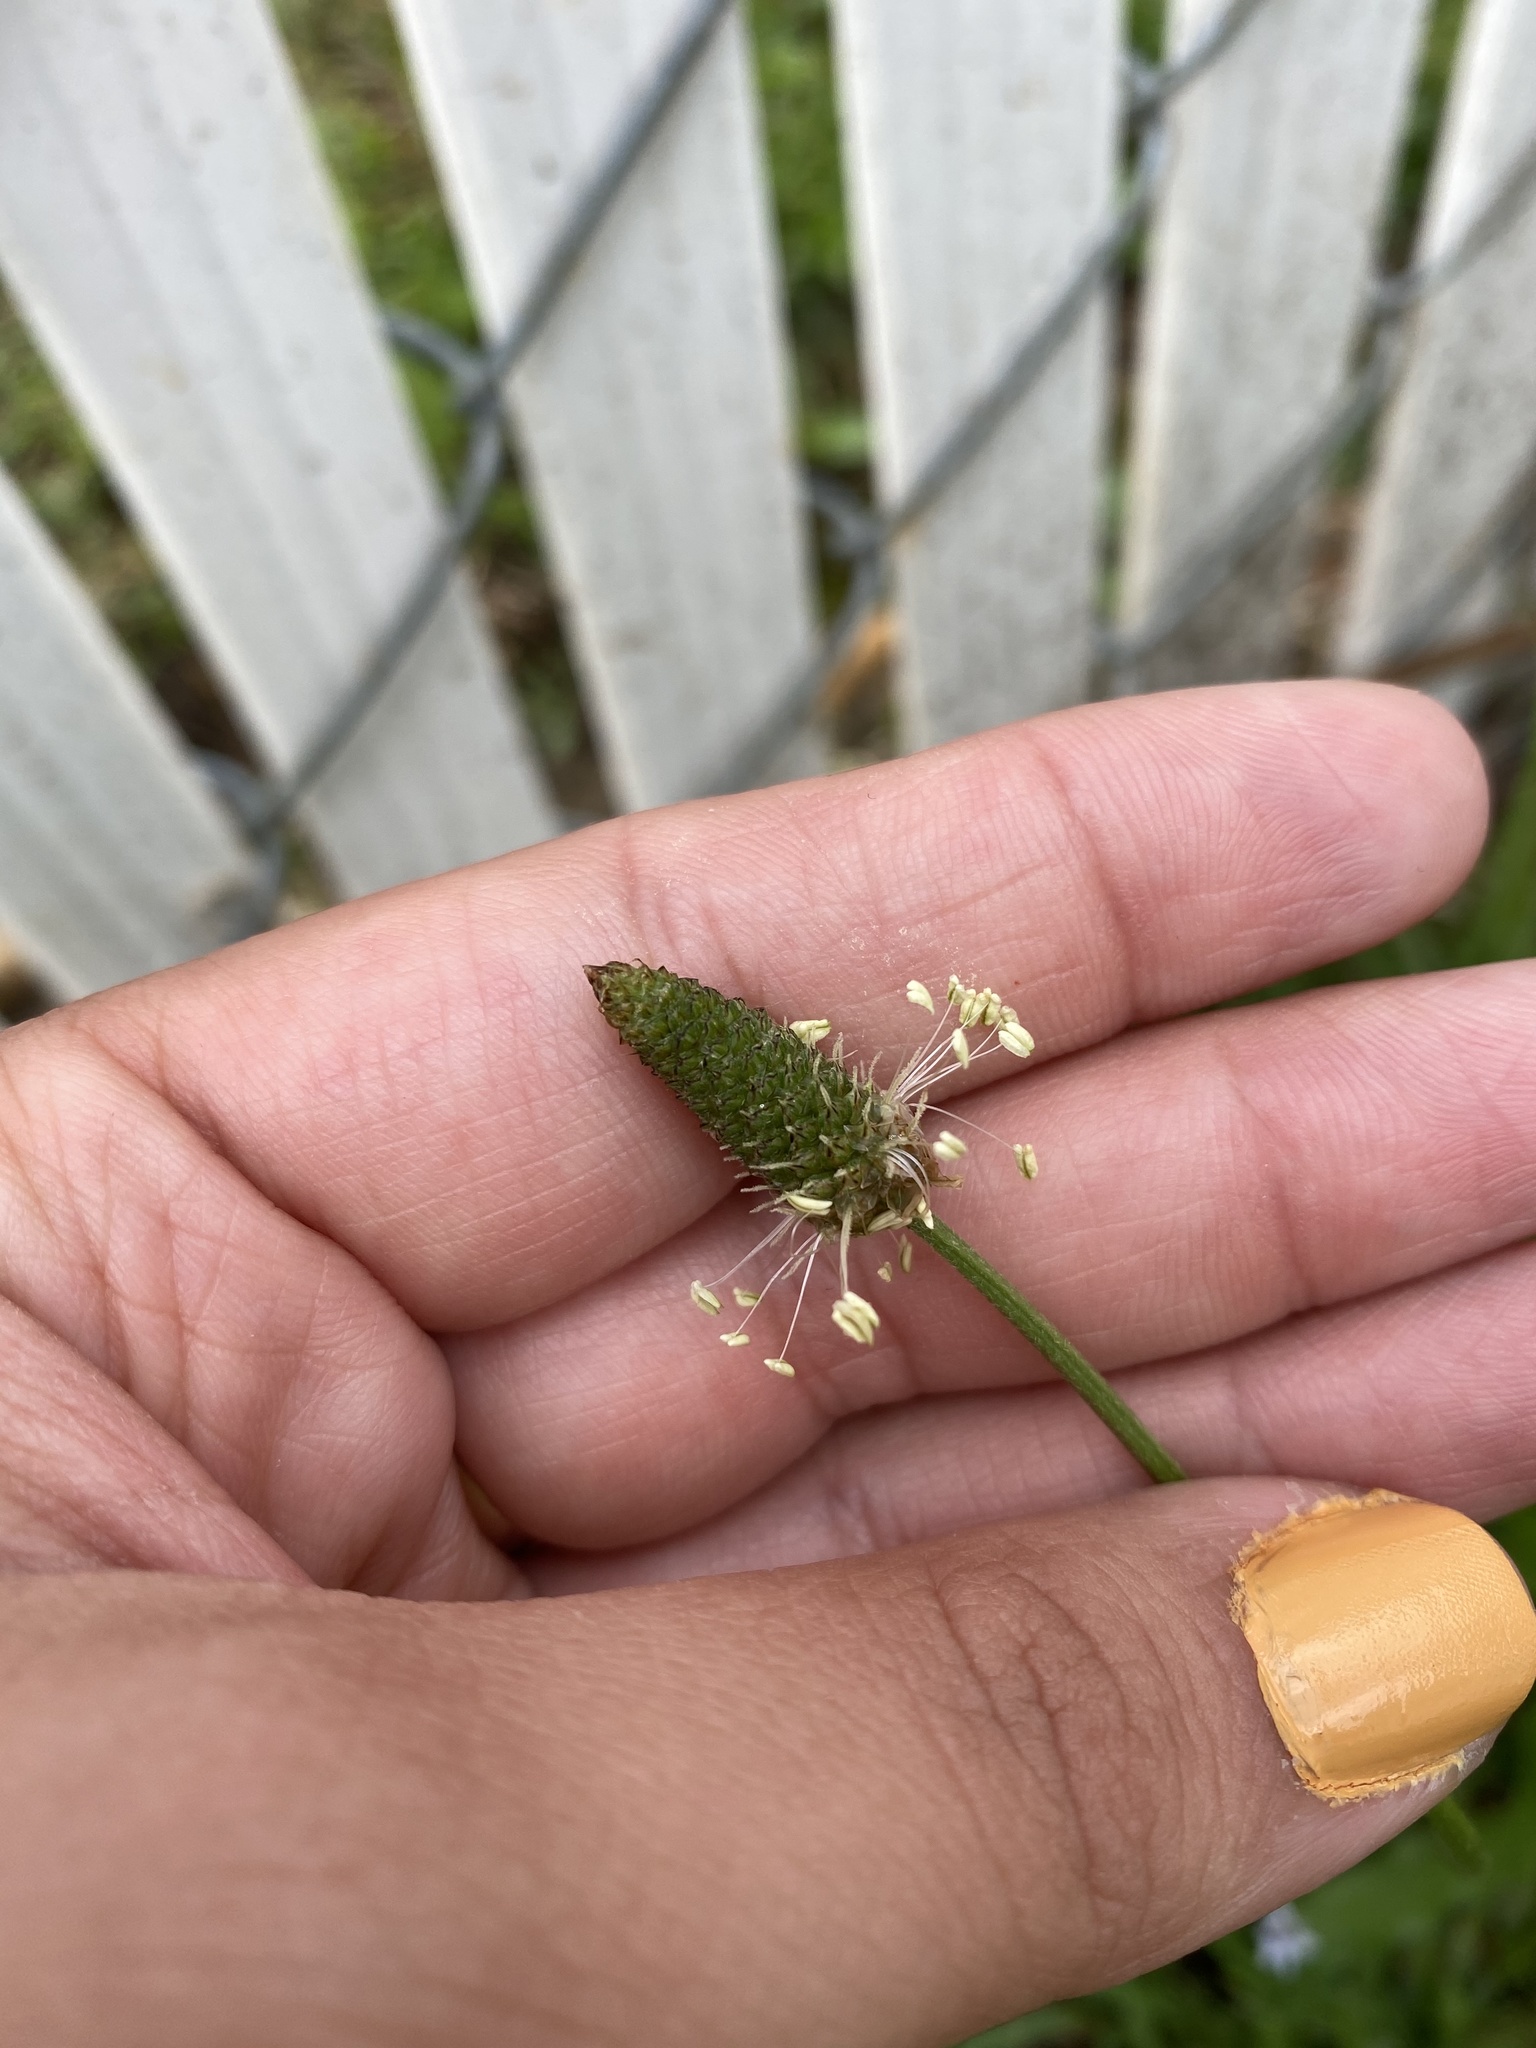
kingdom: Plantae
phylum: Tracheophyta
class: Magnoliopsida
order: Lamiales
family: Plantaginaceae
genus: Plantago
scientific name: Plantago lanceolata
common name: Ribwort plantain
